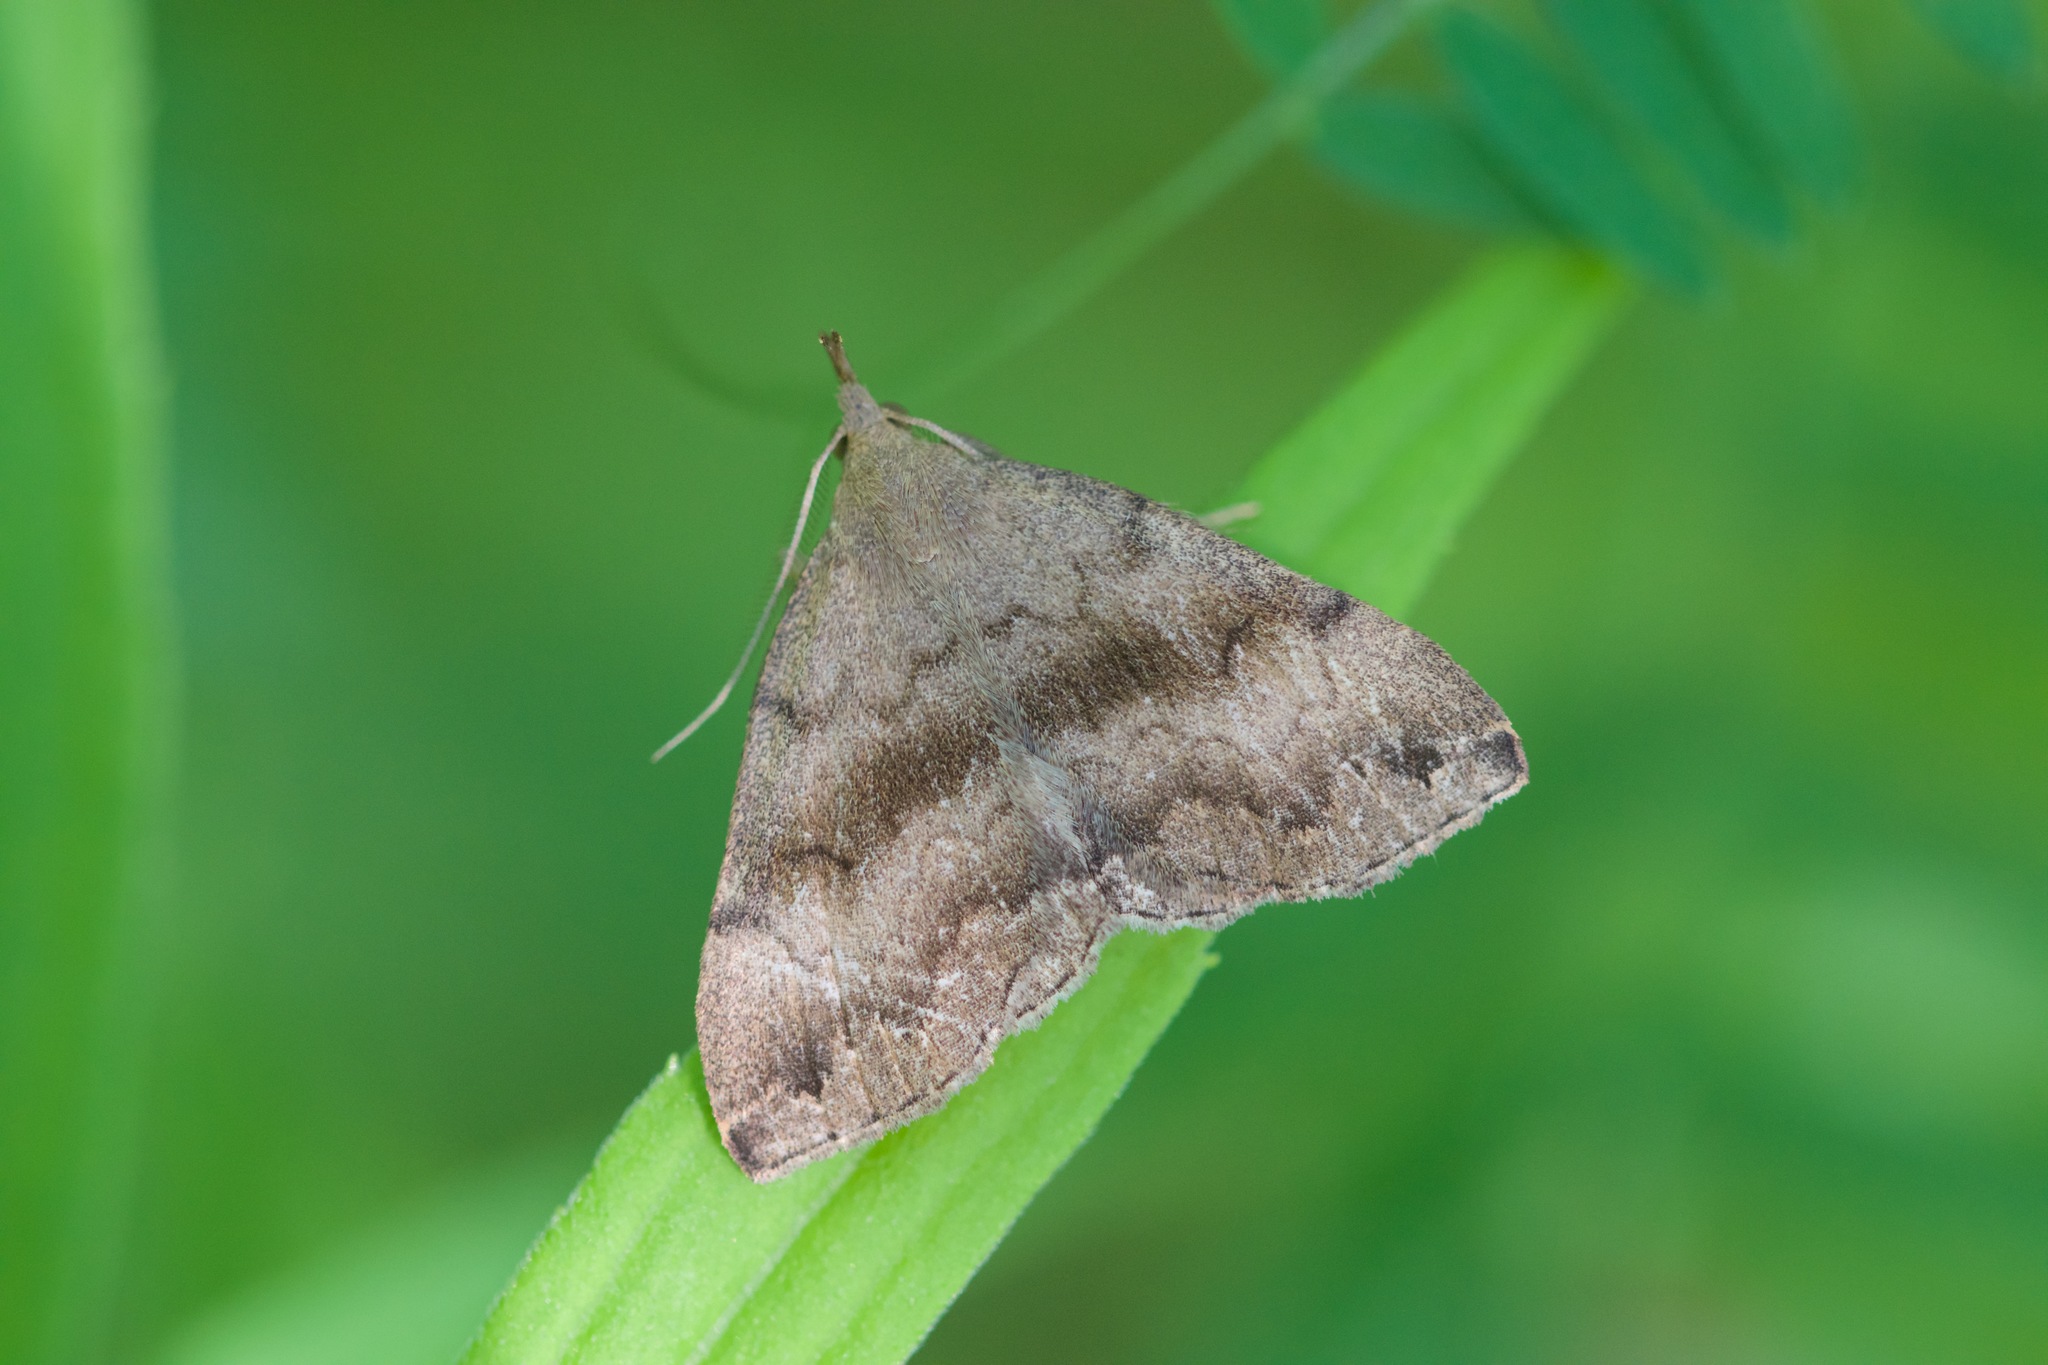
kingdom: Animalia
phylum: Arthropoda
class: Insecta
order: Lepidoptera
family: Erebidae
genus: Phalaenostola
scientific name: Phalaenostola eumelusalis
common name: Dark phalaenostola moth
